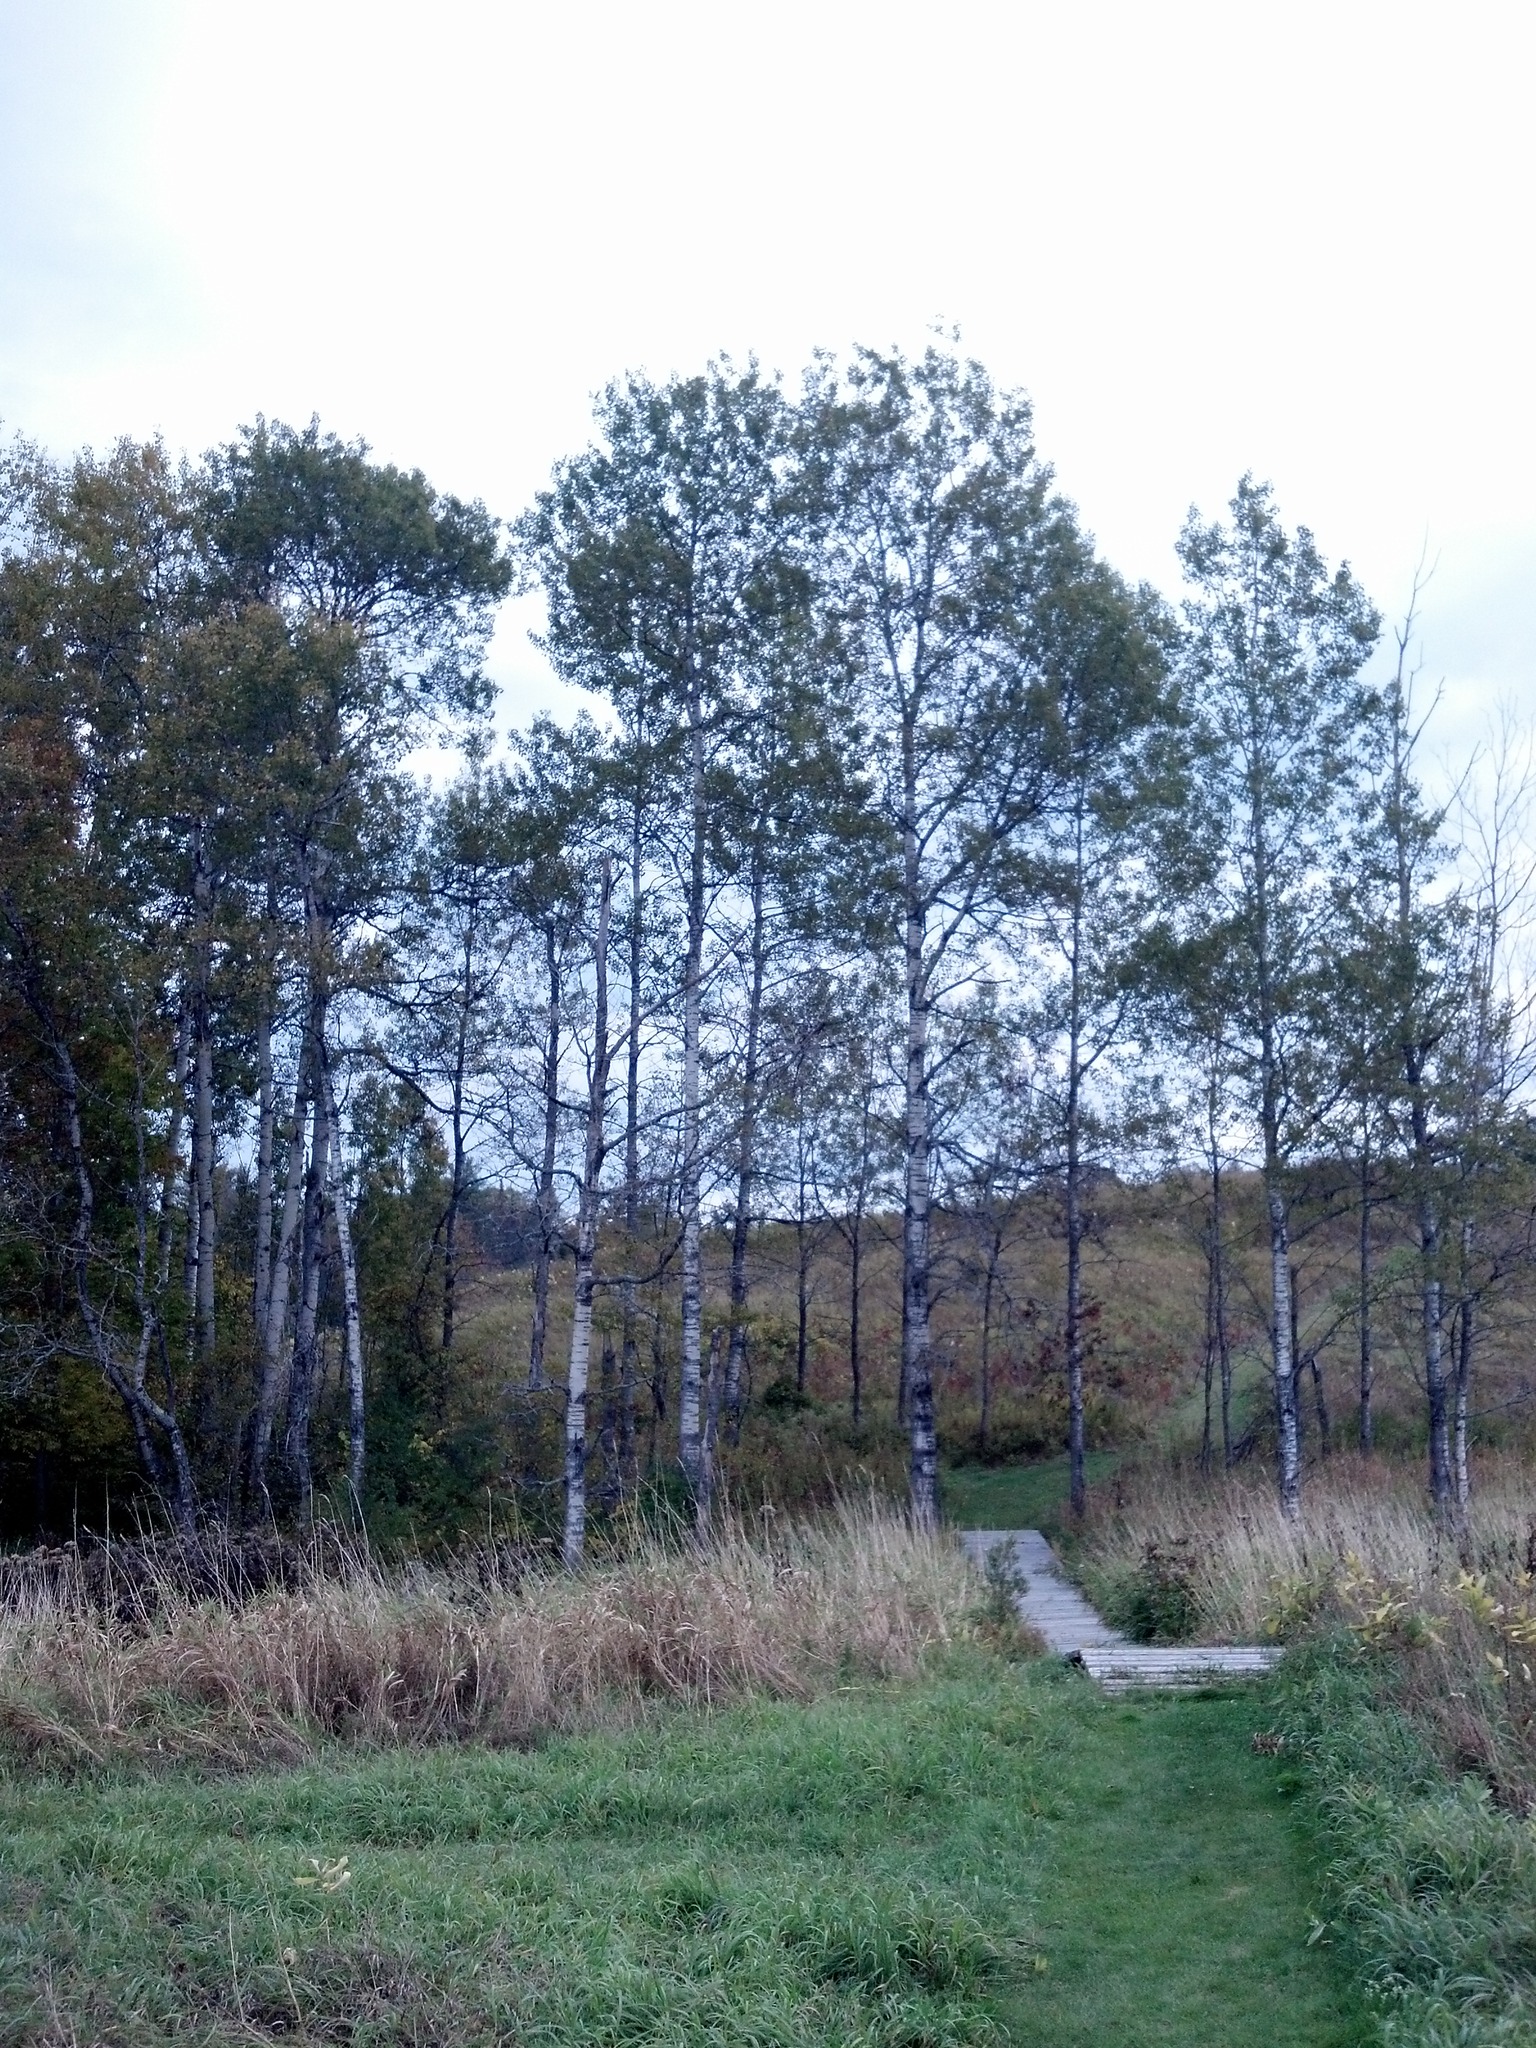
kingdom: Plantae
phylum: Tracheophyta
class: Magnoliopsida
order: Malpighiales
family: Salicaceae
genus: Populus
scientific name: Populus tremuloides
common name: Quaking aspen
